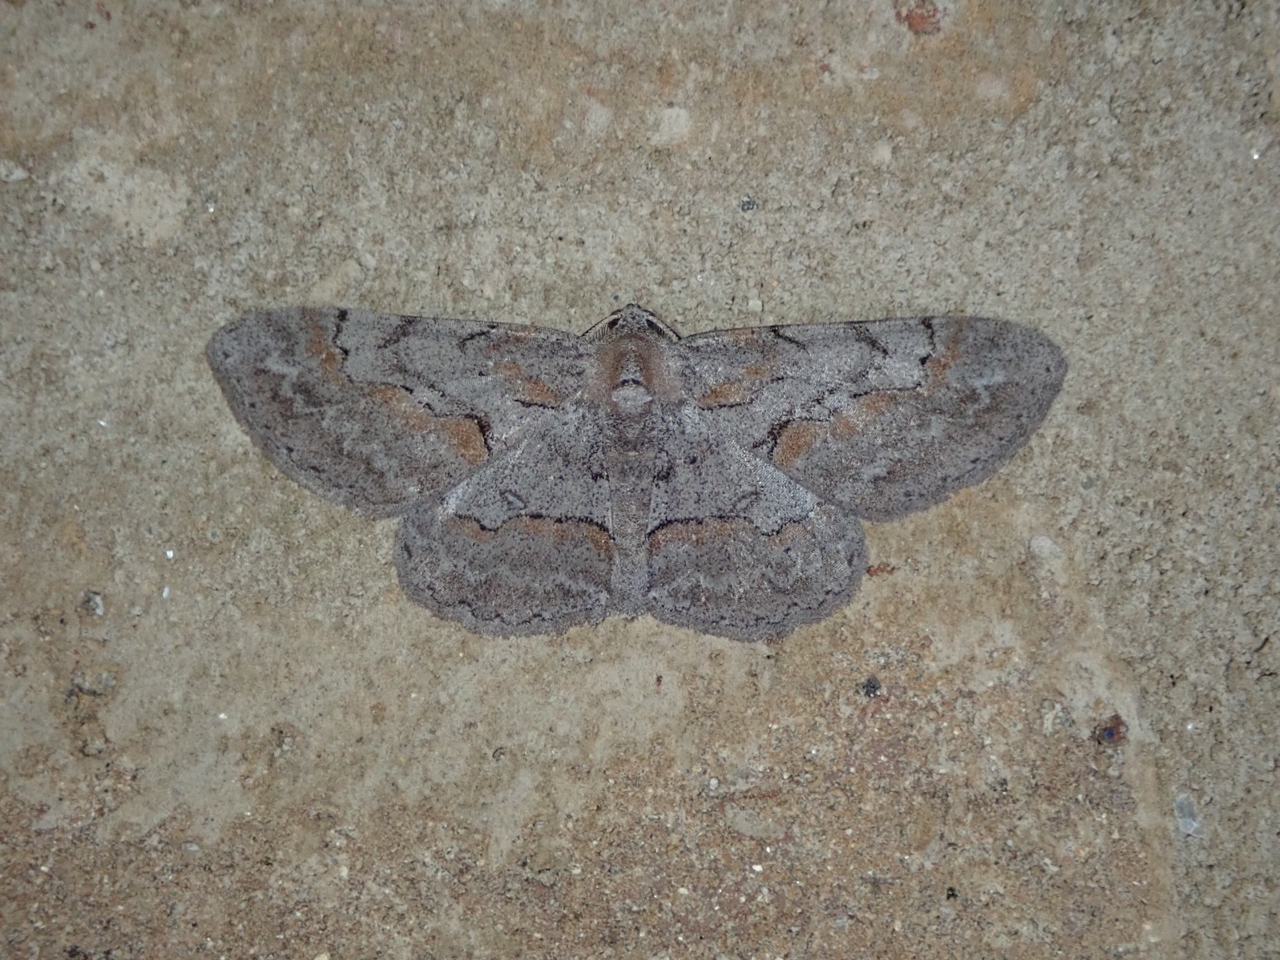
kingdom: Animalia
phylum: Arthropoda
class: Insecta
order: Lepidoptera
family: Geometridae
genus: Iridopsis
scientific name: Iridopsis vellivolata
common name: Large purplish gray
